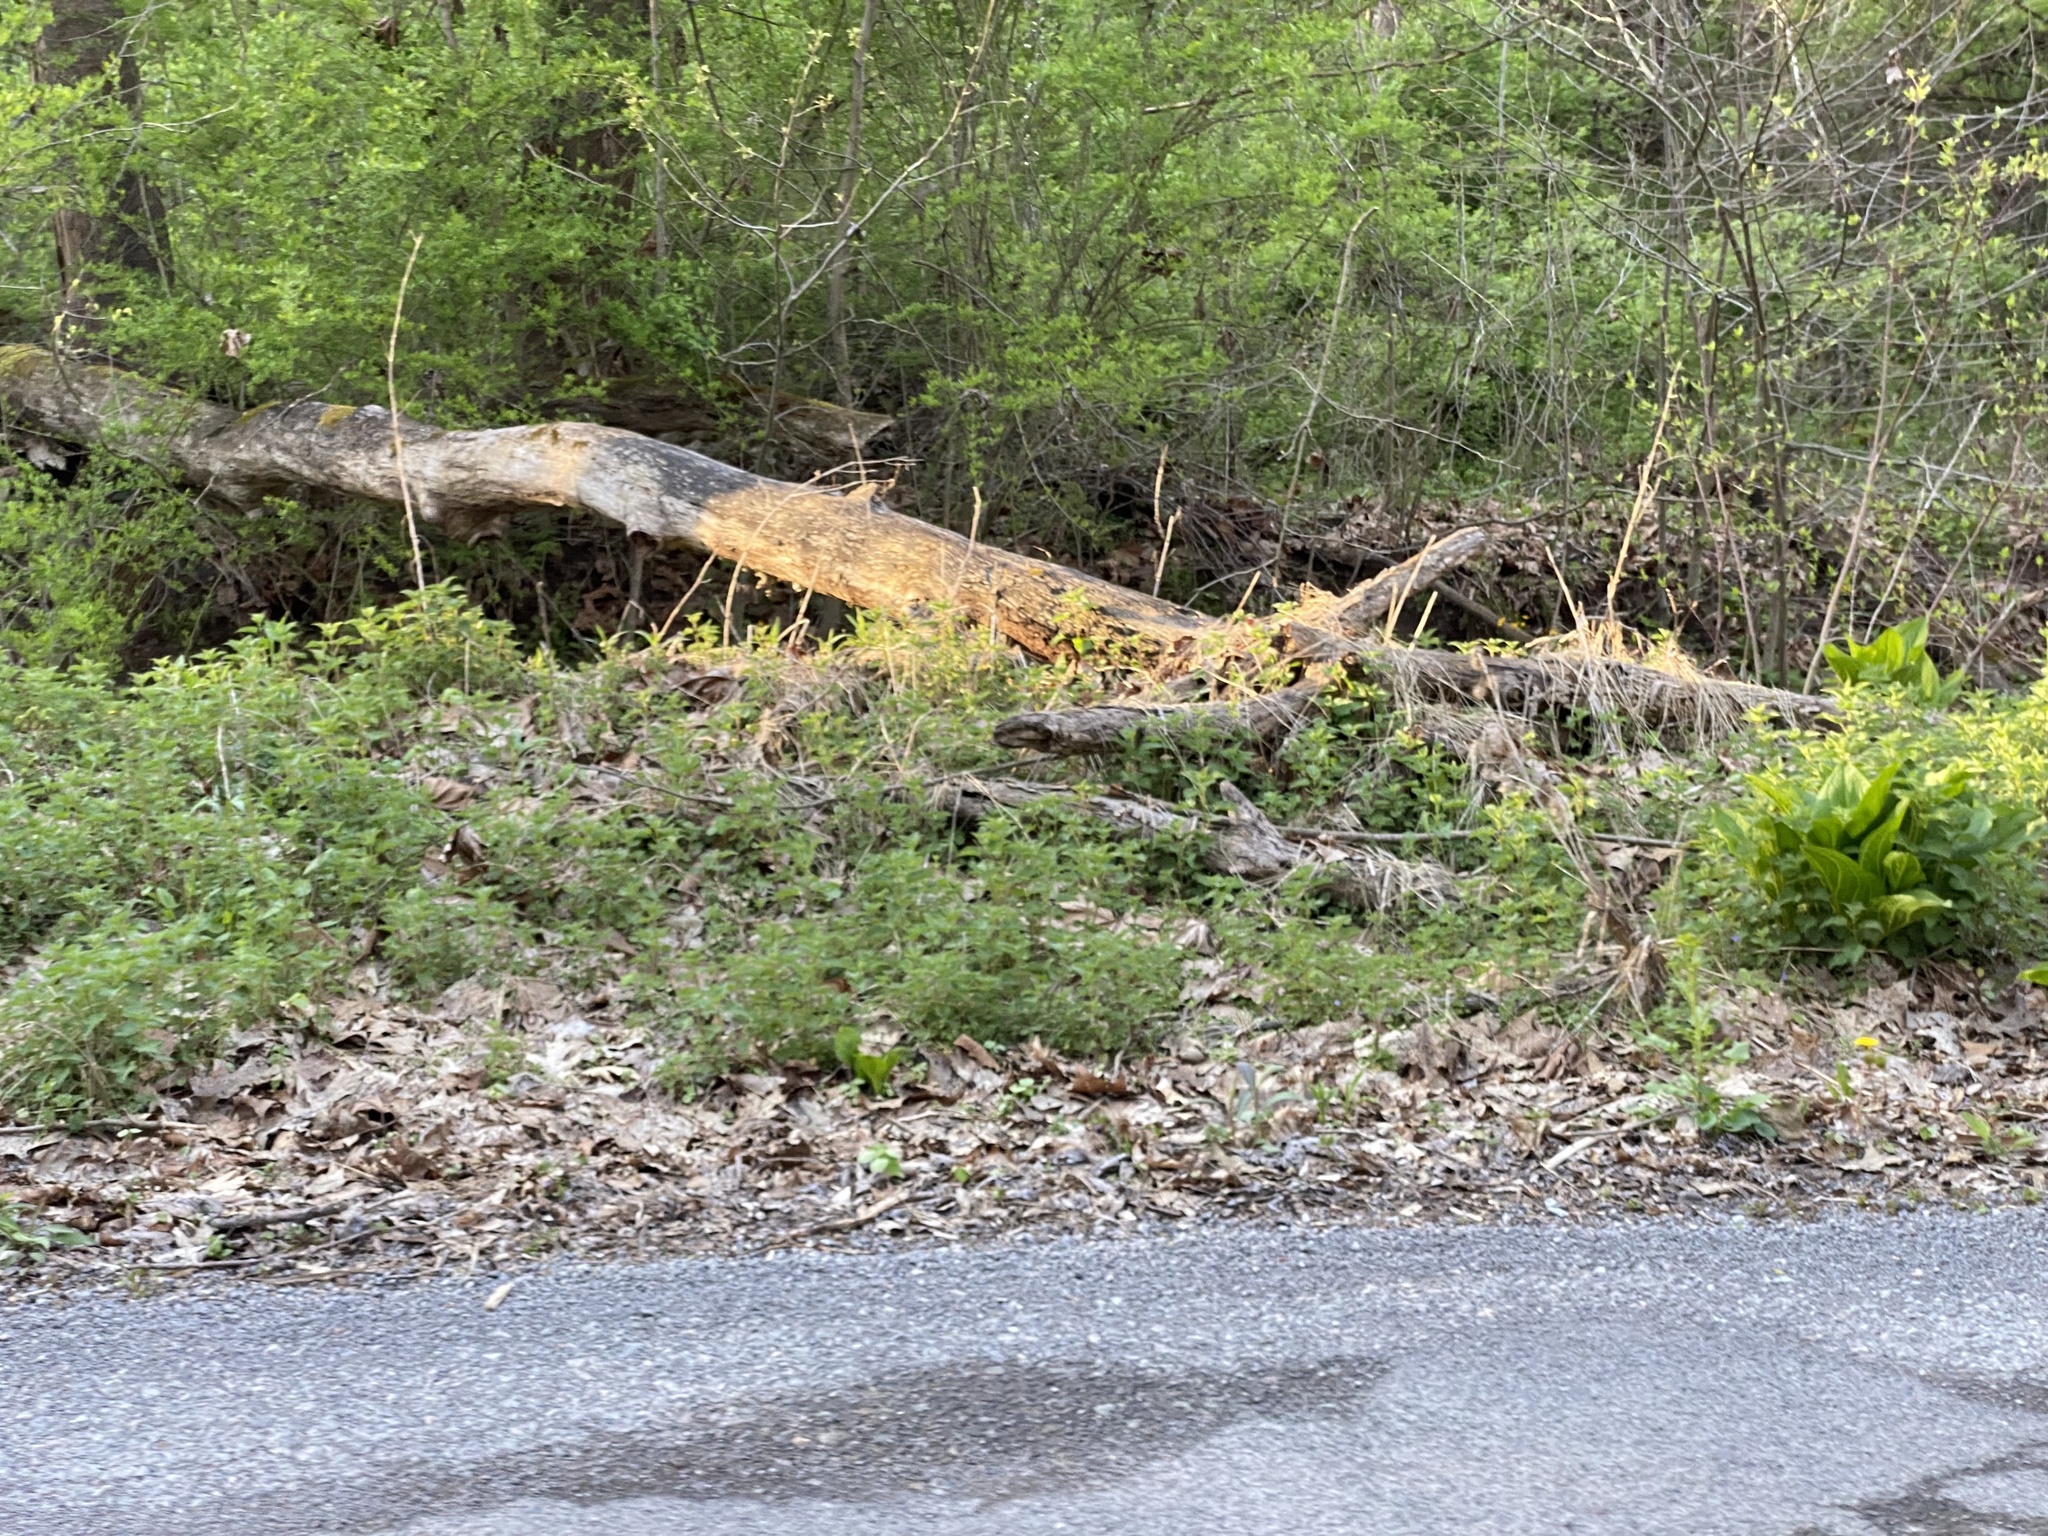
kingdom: Plantae
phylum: Tracheophyta
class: Magnoliopsida
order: Rosales
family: Urticaceae
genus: Urtica
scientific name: Urtica dioica
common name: Common nettle
